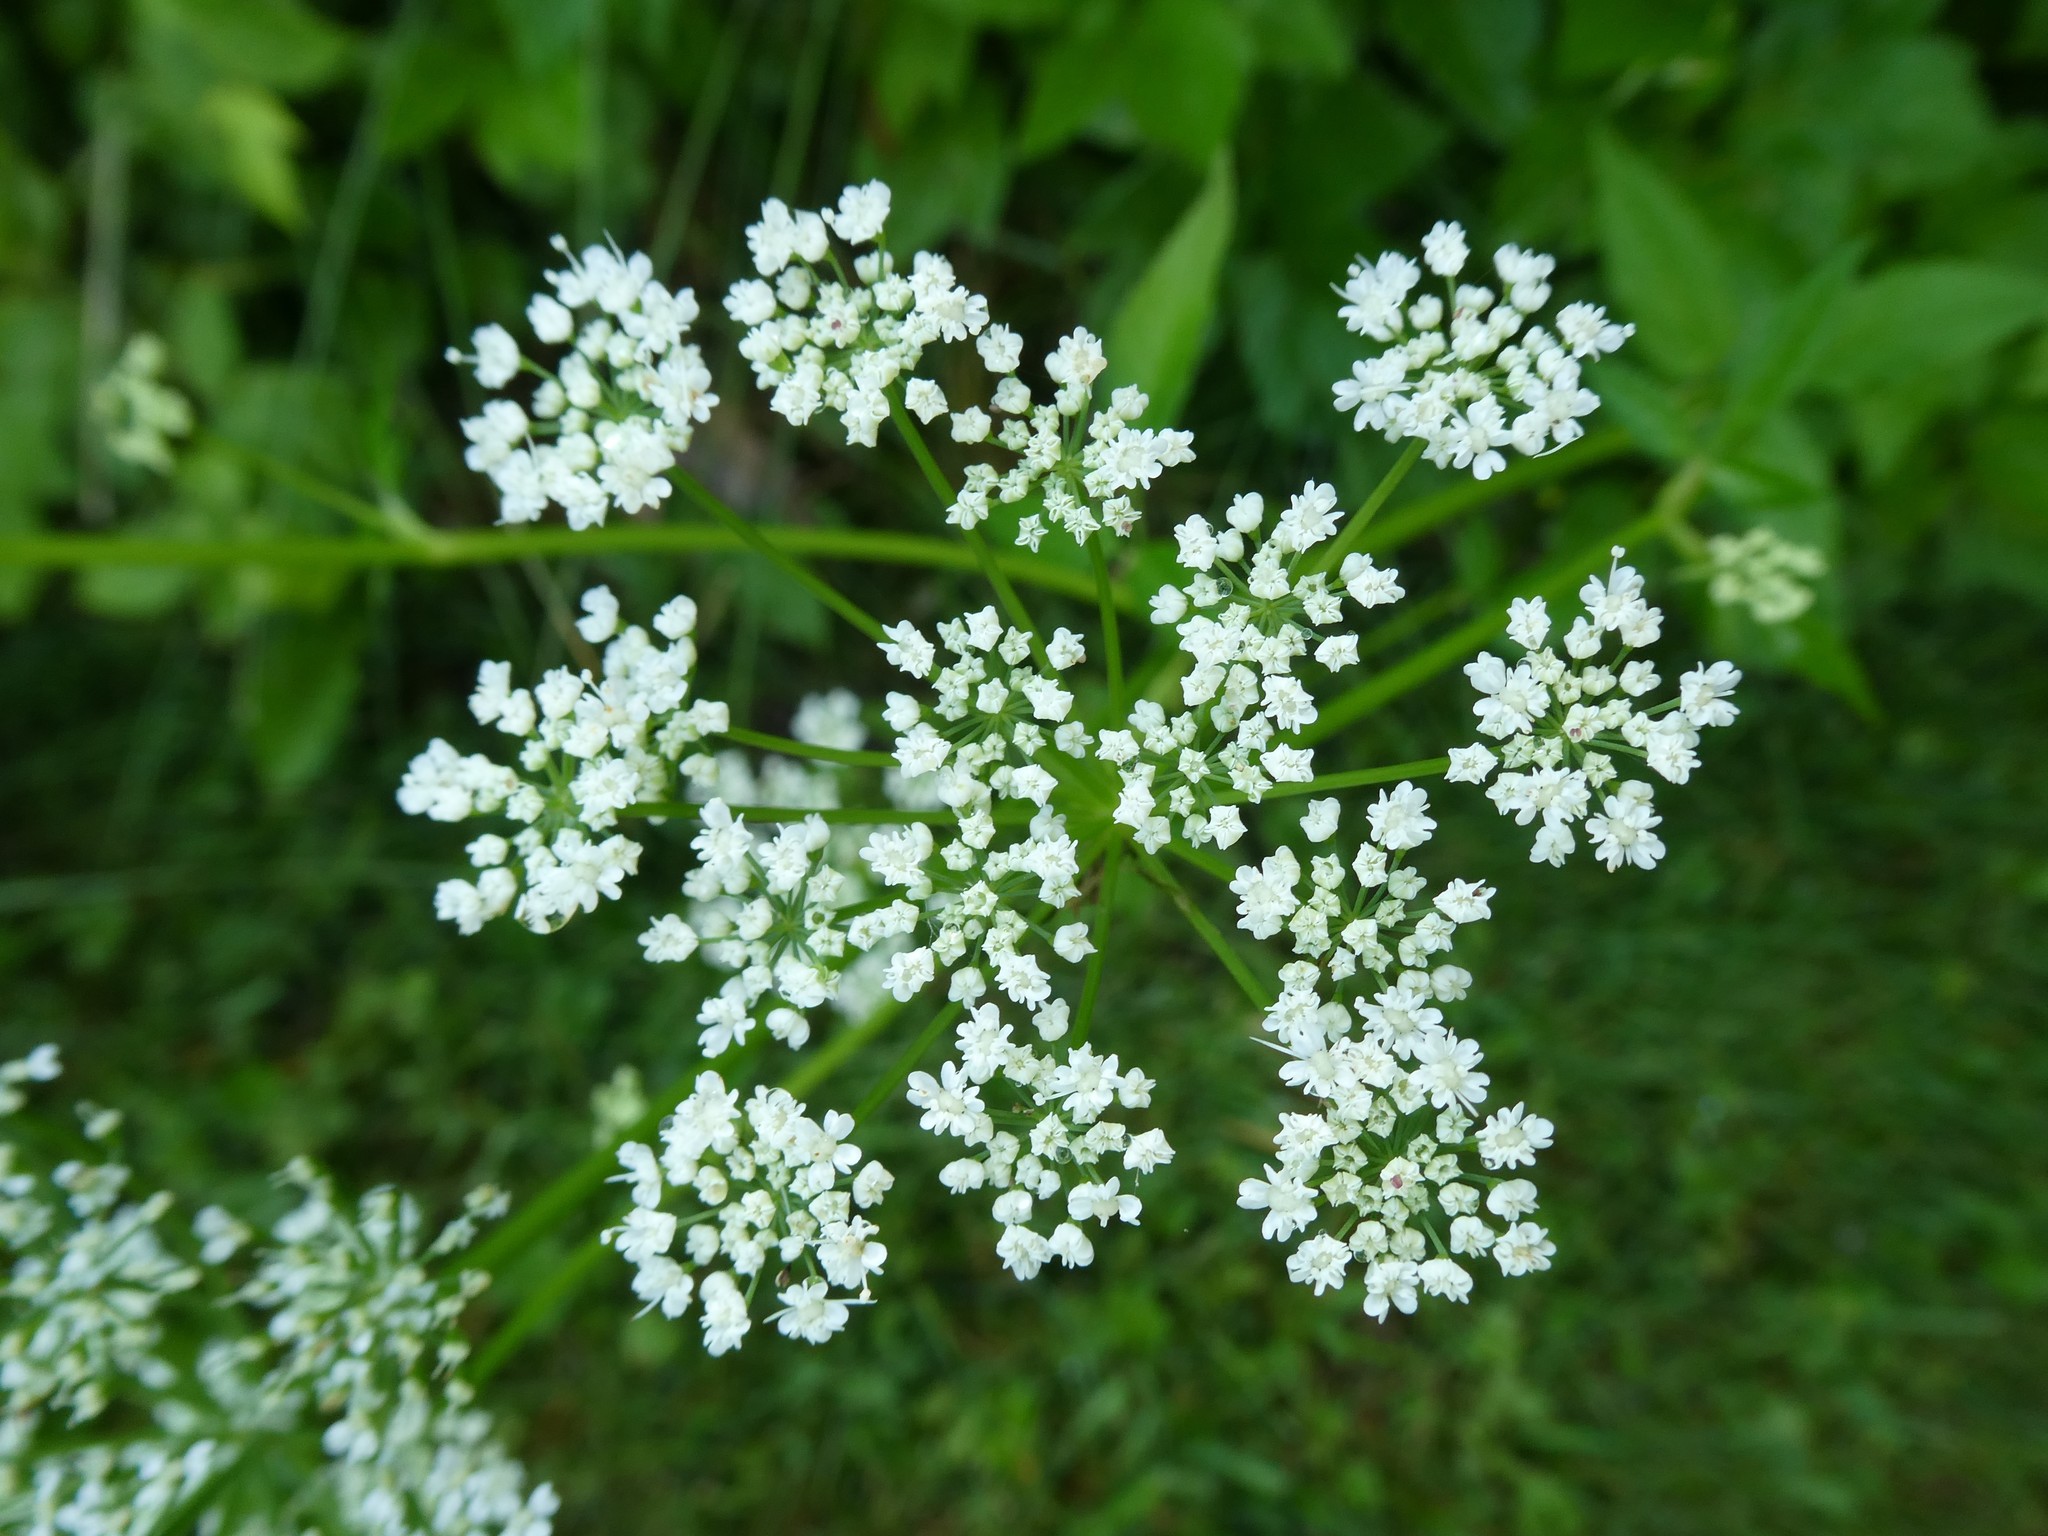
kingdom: Plantae
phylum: Tracheophyta
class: Magnoliopsida
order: Apiales
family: Apiaceae
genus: Aegopodium
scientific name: Aegopodium podagraria
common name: Ground-elder
